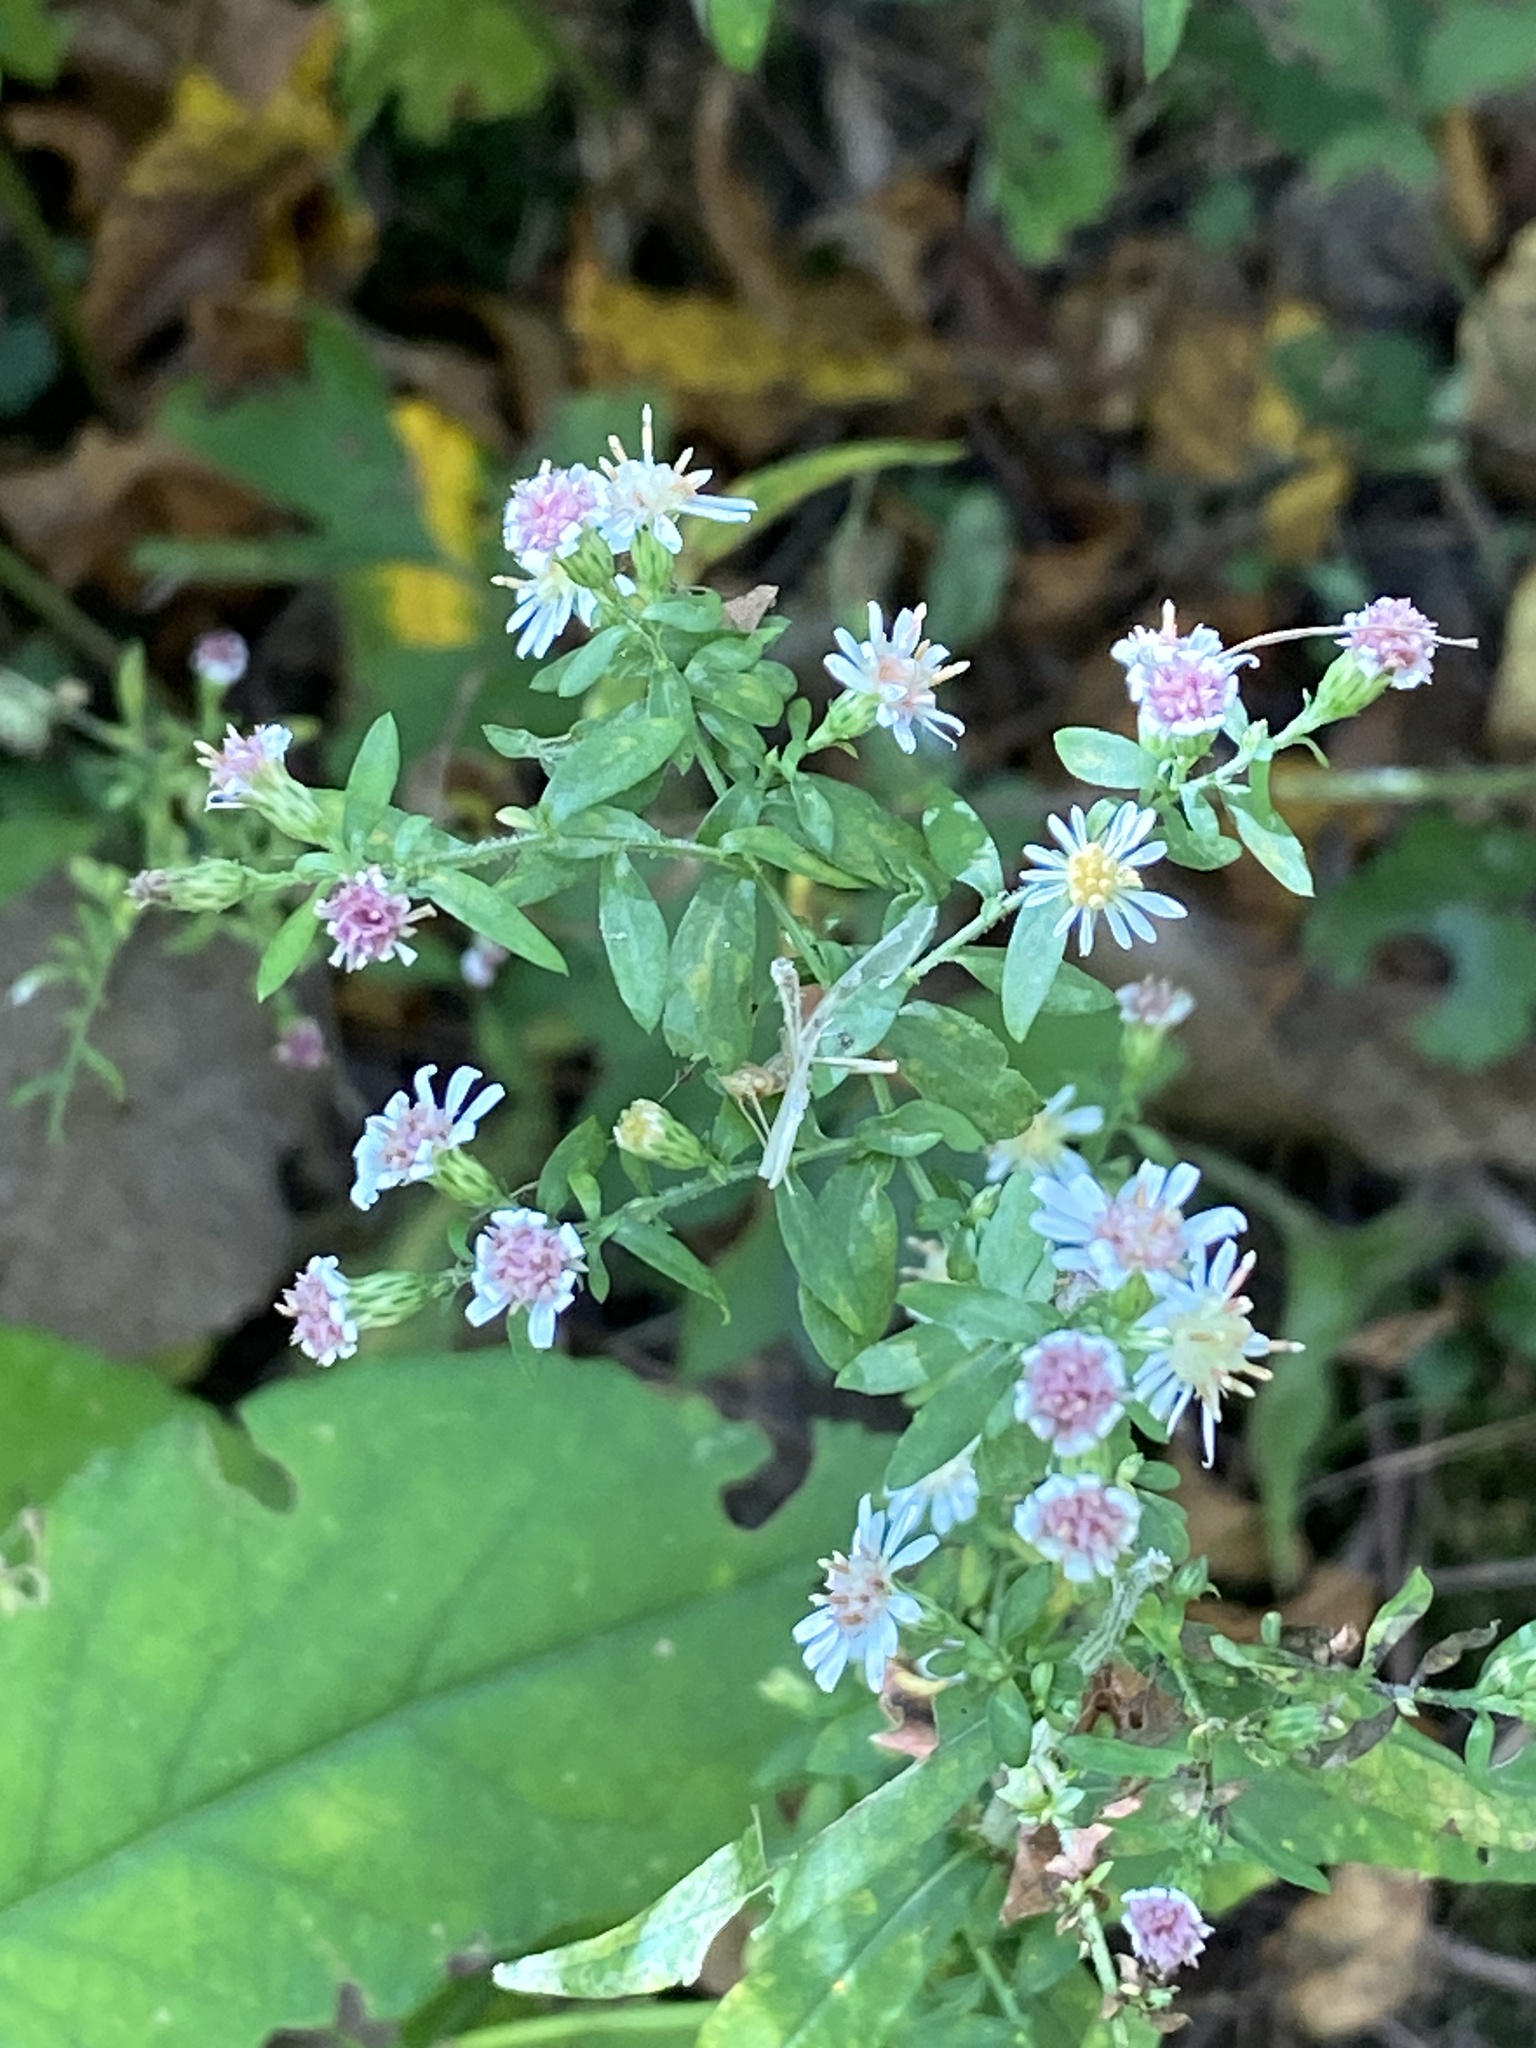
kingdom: Plantae
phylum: Tracheophyta
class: Magnoliopsida
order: Asterales
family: Asteraceae
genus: Symphyotrichum
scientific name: Symphyotrichum lateriflorum
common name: Calico aster
